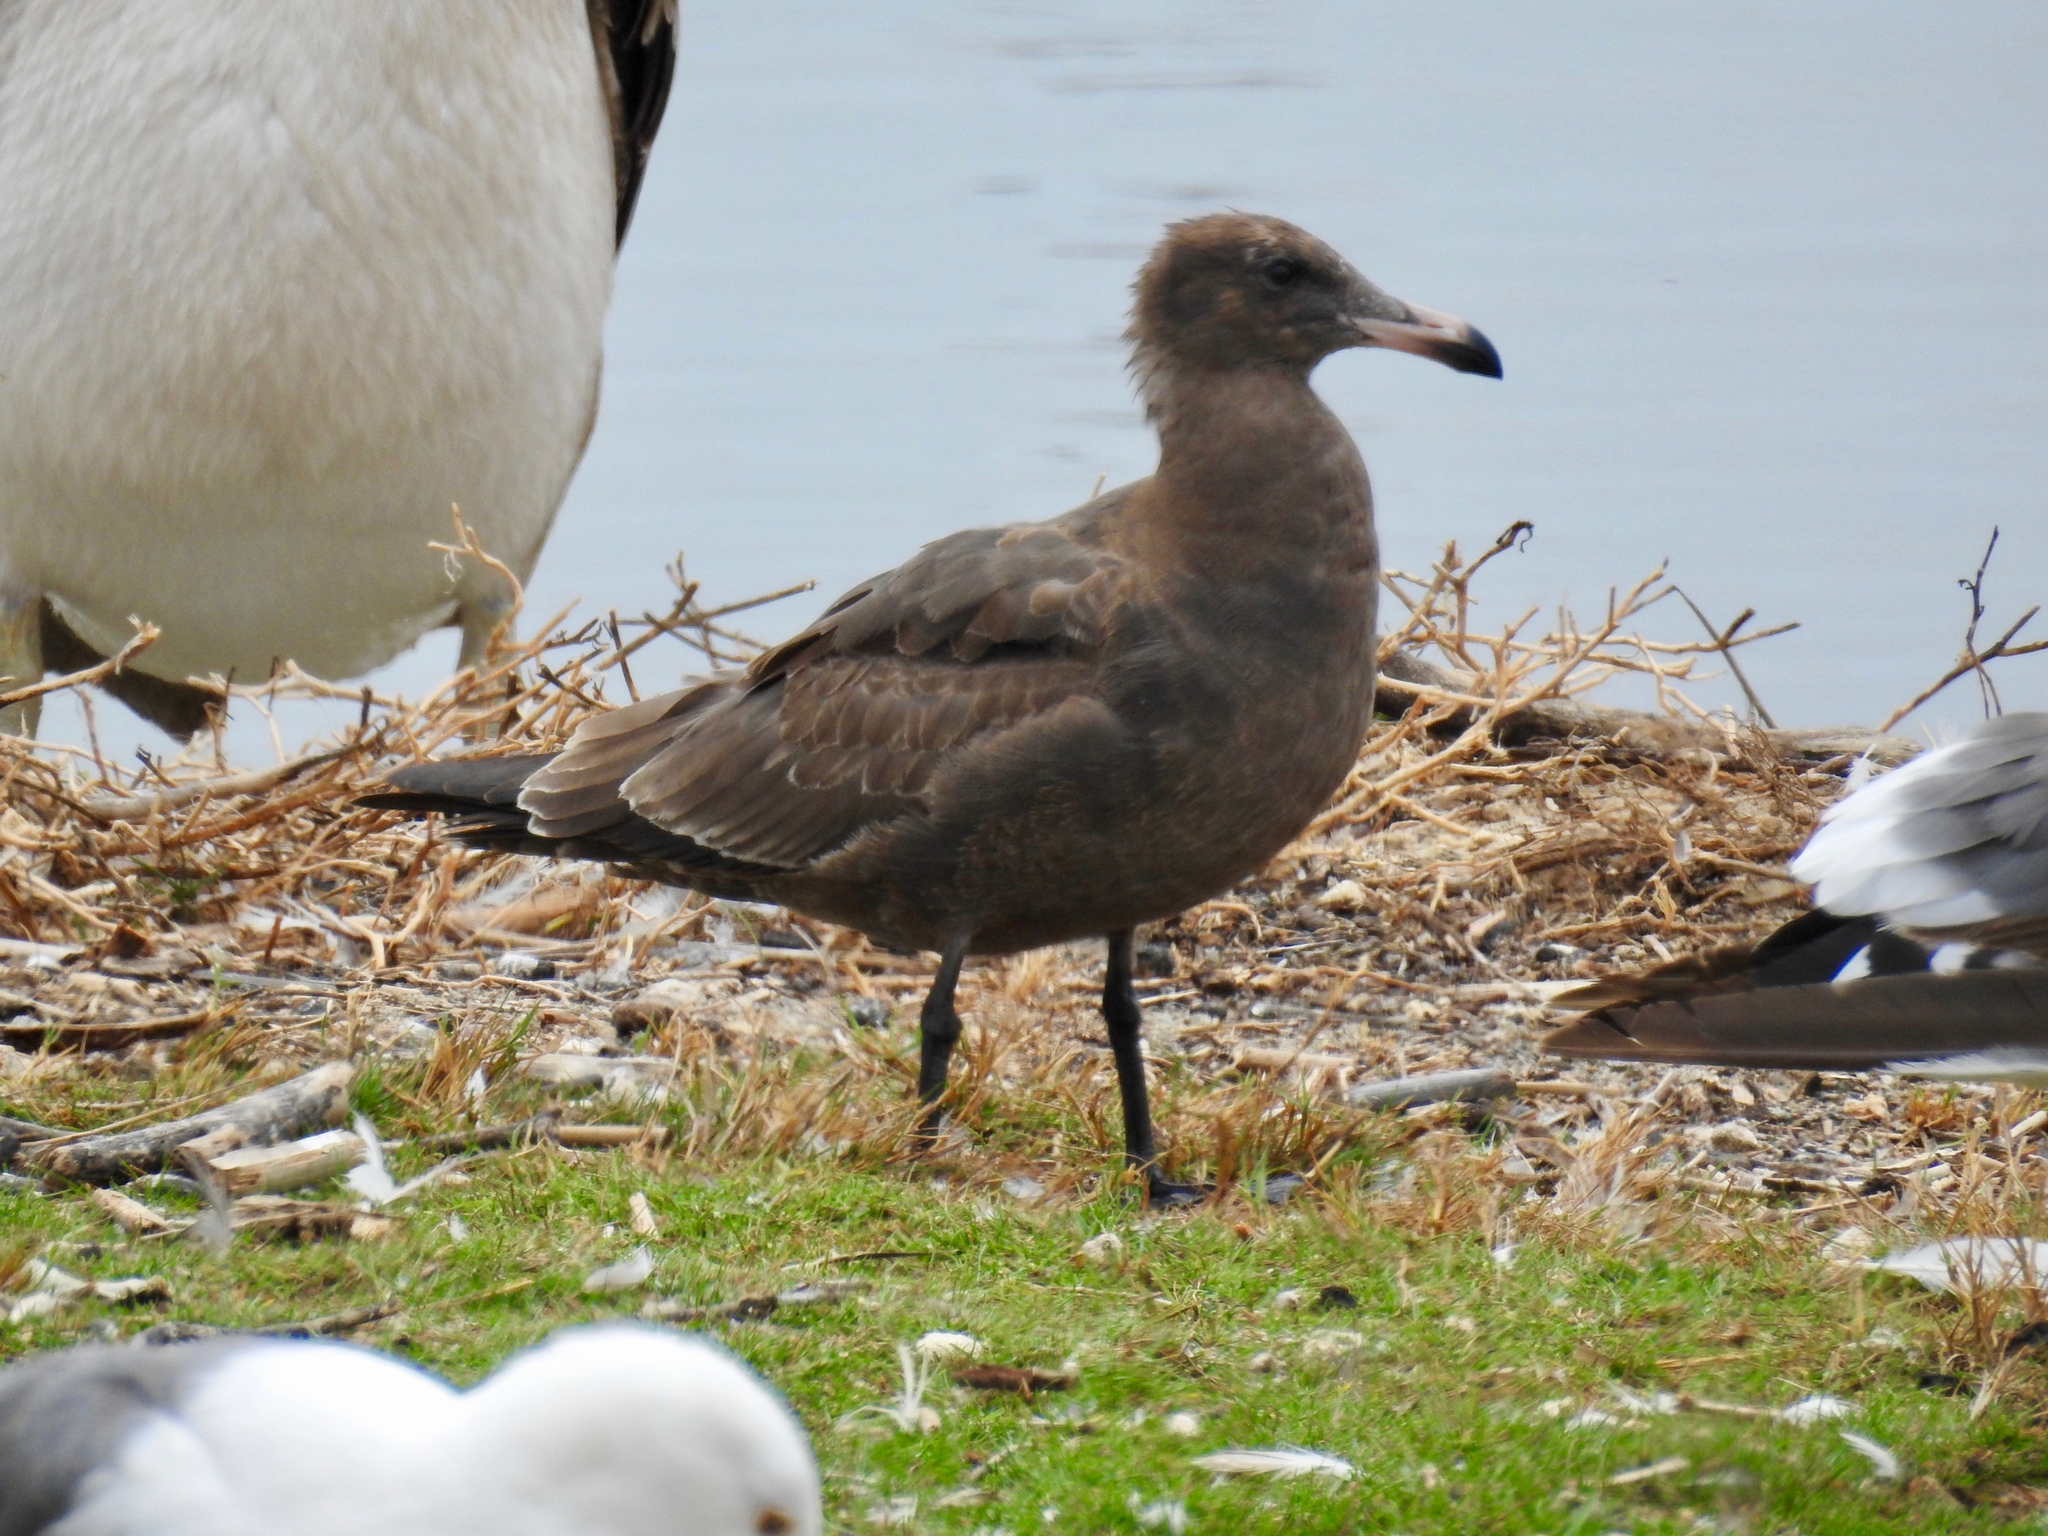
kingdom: Animalia
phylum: Chordata
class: Aves
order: Charadriiformes
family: Laridae
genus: Larus
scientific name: Larus heermanni
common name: Heermann's gull
